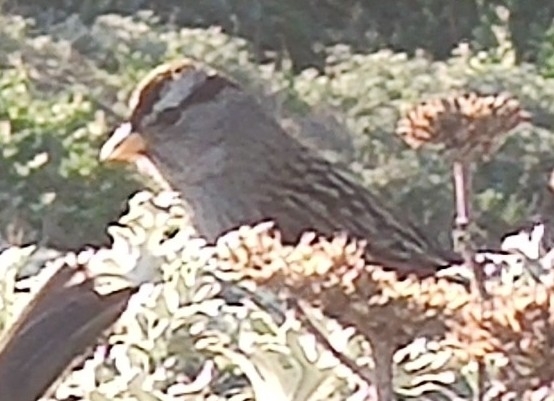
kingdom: Animalia
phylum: Chordata
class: Aves
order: Passeriformes
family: Passerellidae
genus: Zonotrichia
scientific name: Zonotrichia leucophrys
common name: White-crowned sparrow
